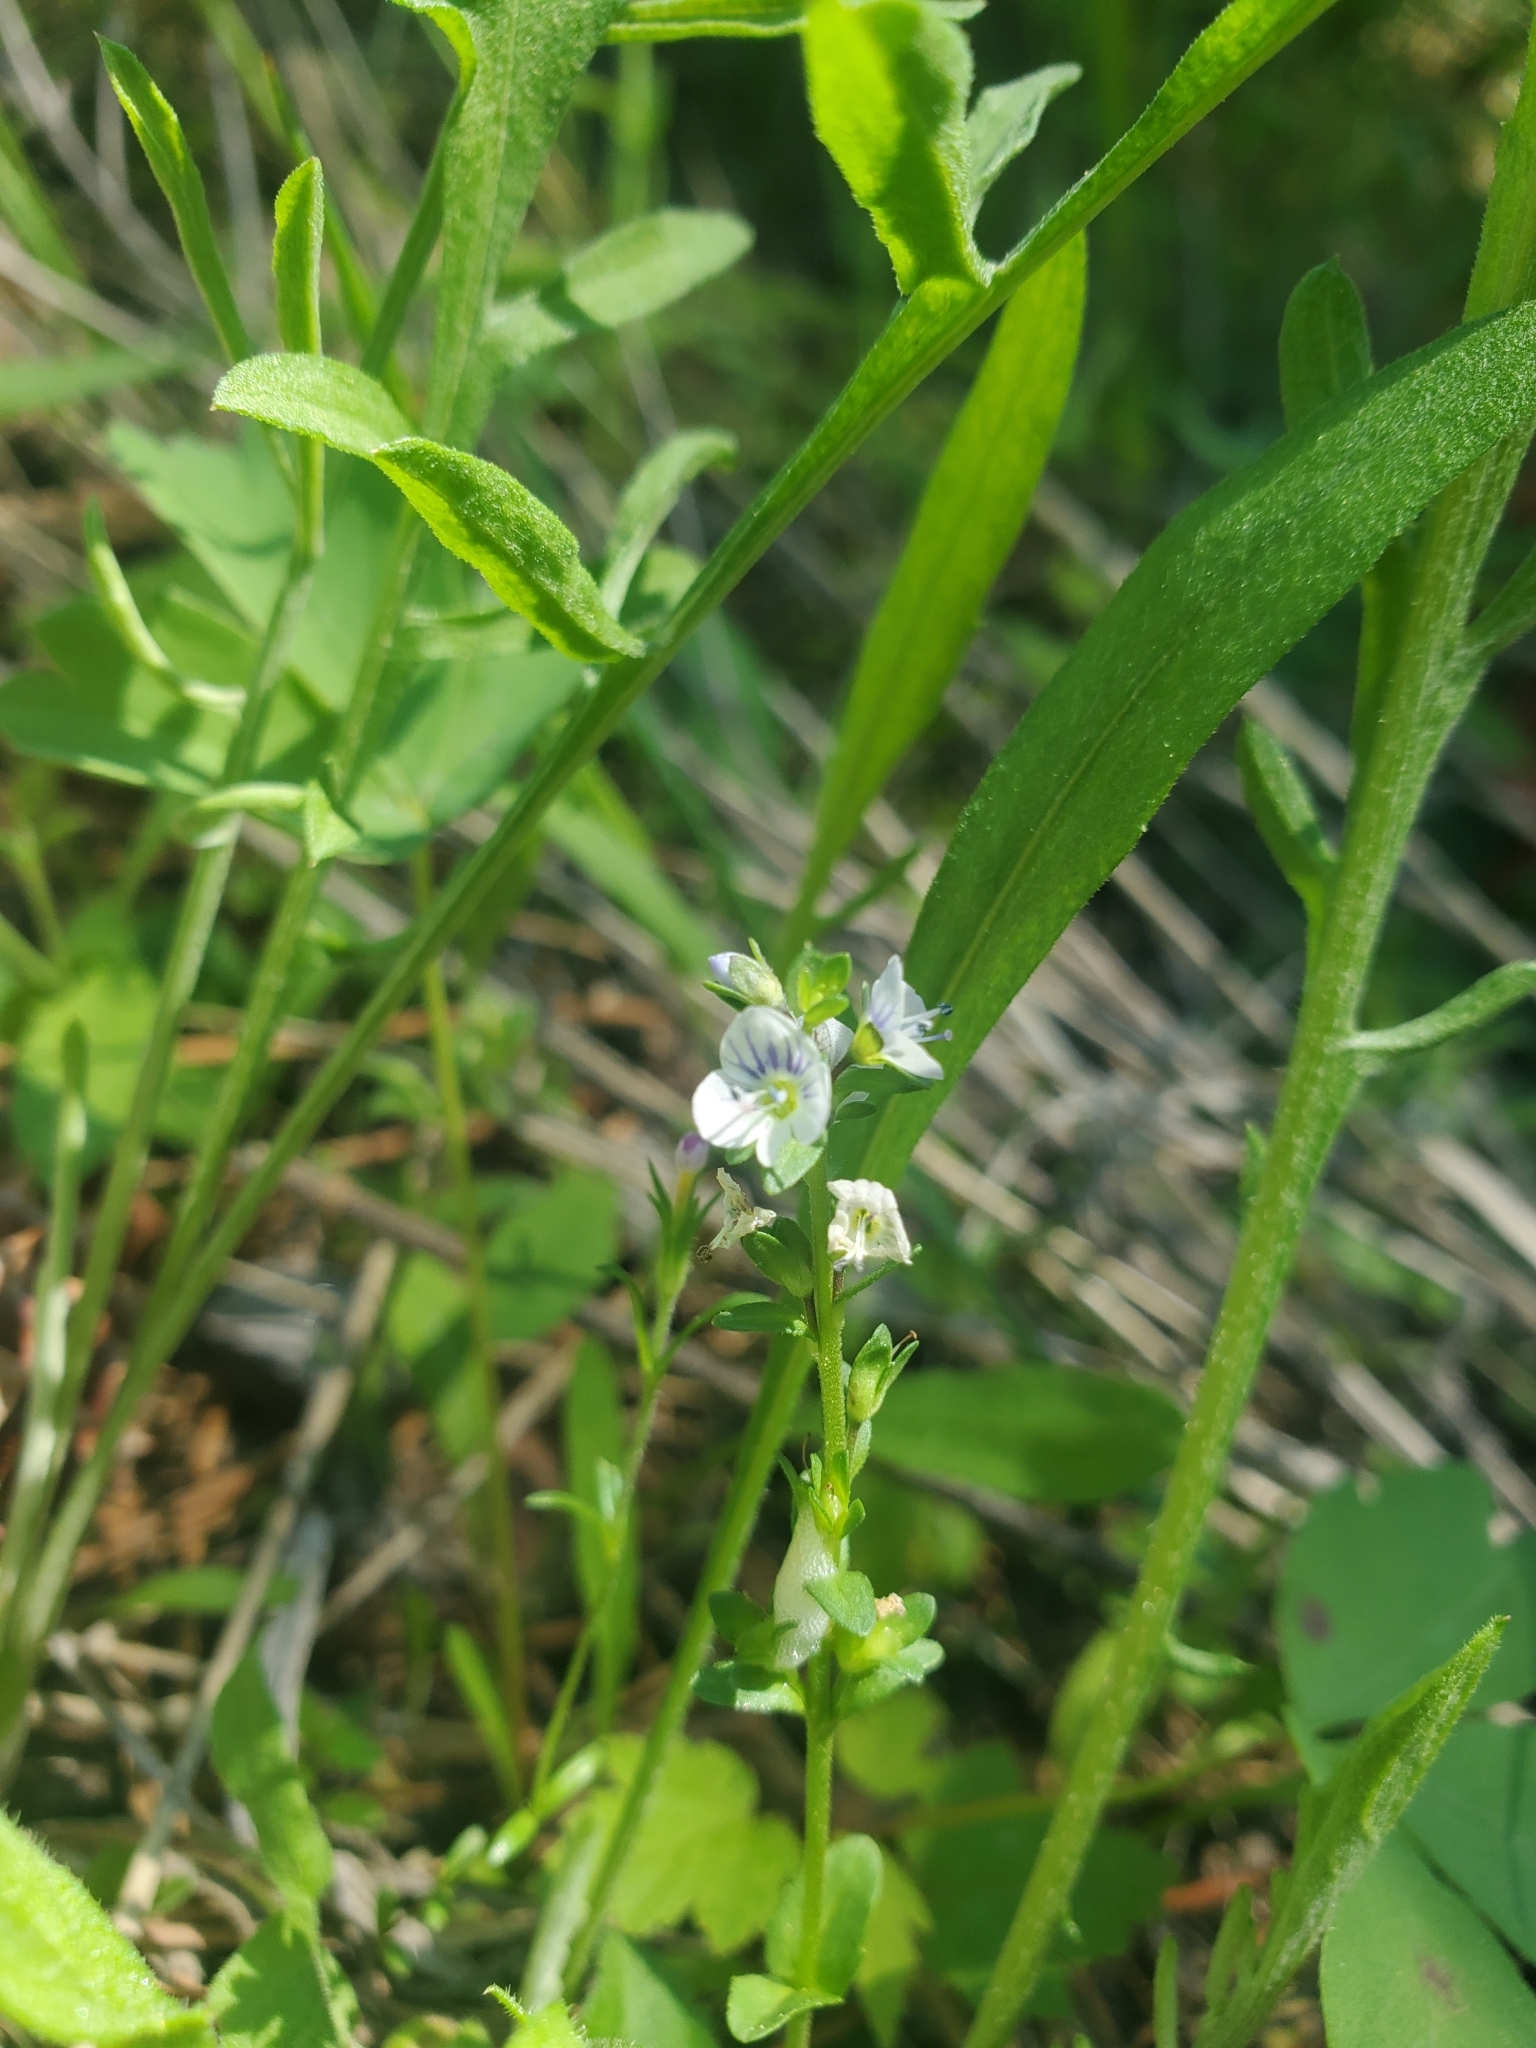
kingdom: Plantae
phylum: Tracheophyta
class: Magnoliopsida
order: Lamiales
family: Plantaginaceae
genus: Veronica
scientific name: Veronica serpyllifolia
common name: Thyme-leaved speedwell
